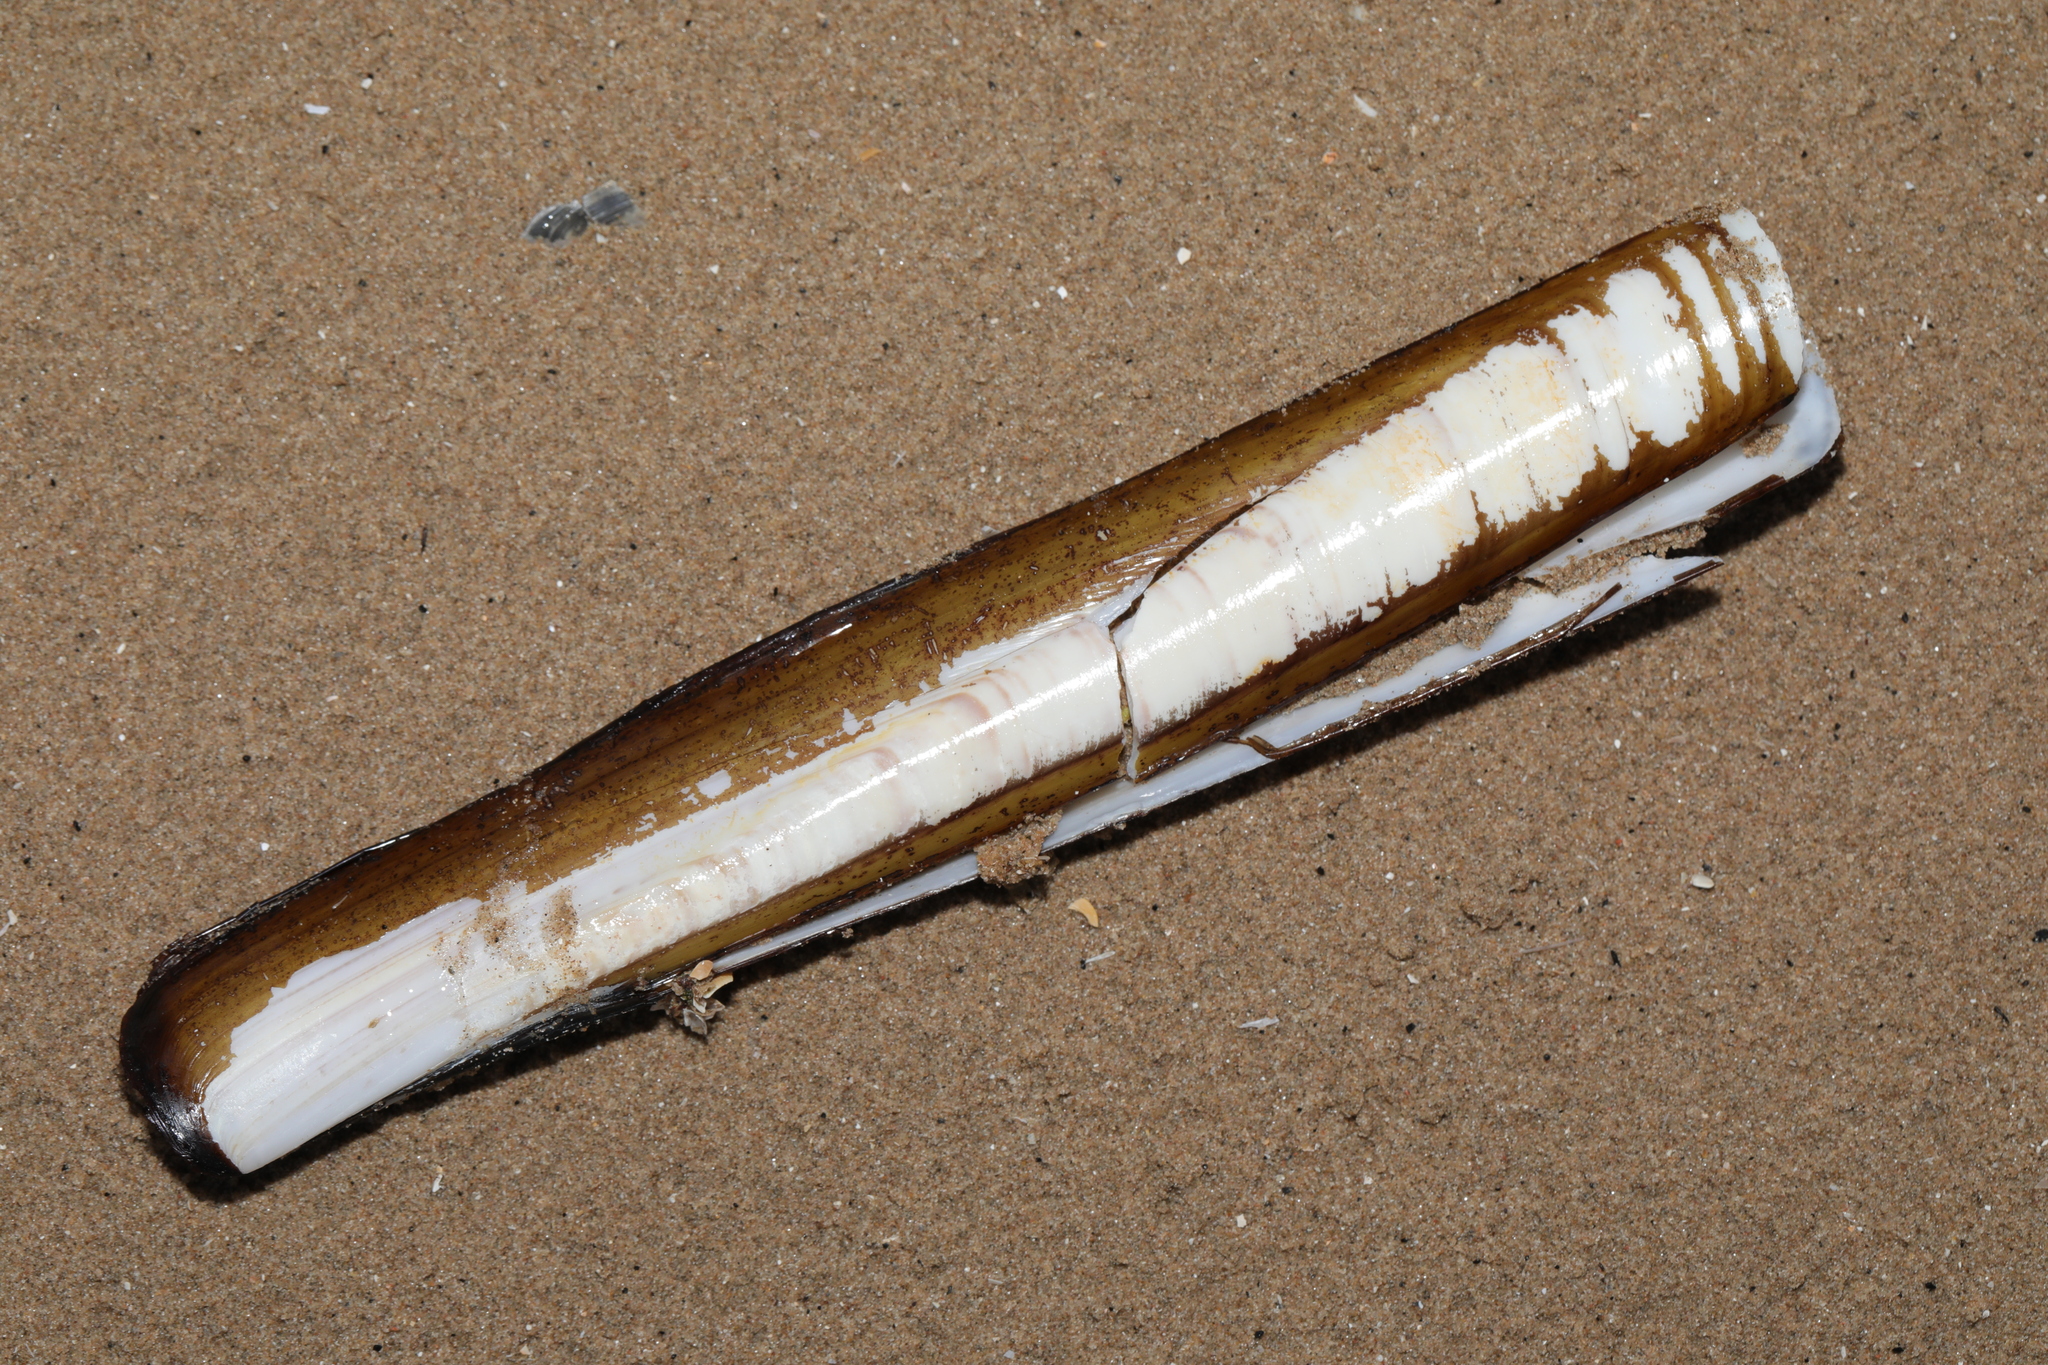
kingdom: Animalia
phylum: Mollusca
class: Bivalvia
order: Adapedonta
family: Pharidae
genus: Ensis
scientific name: Ensis siliqua
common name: Pod razor shell
